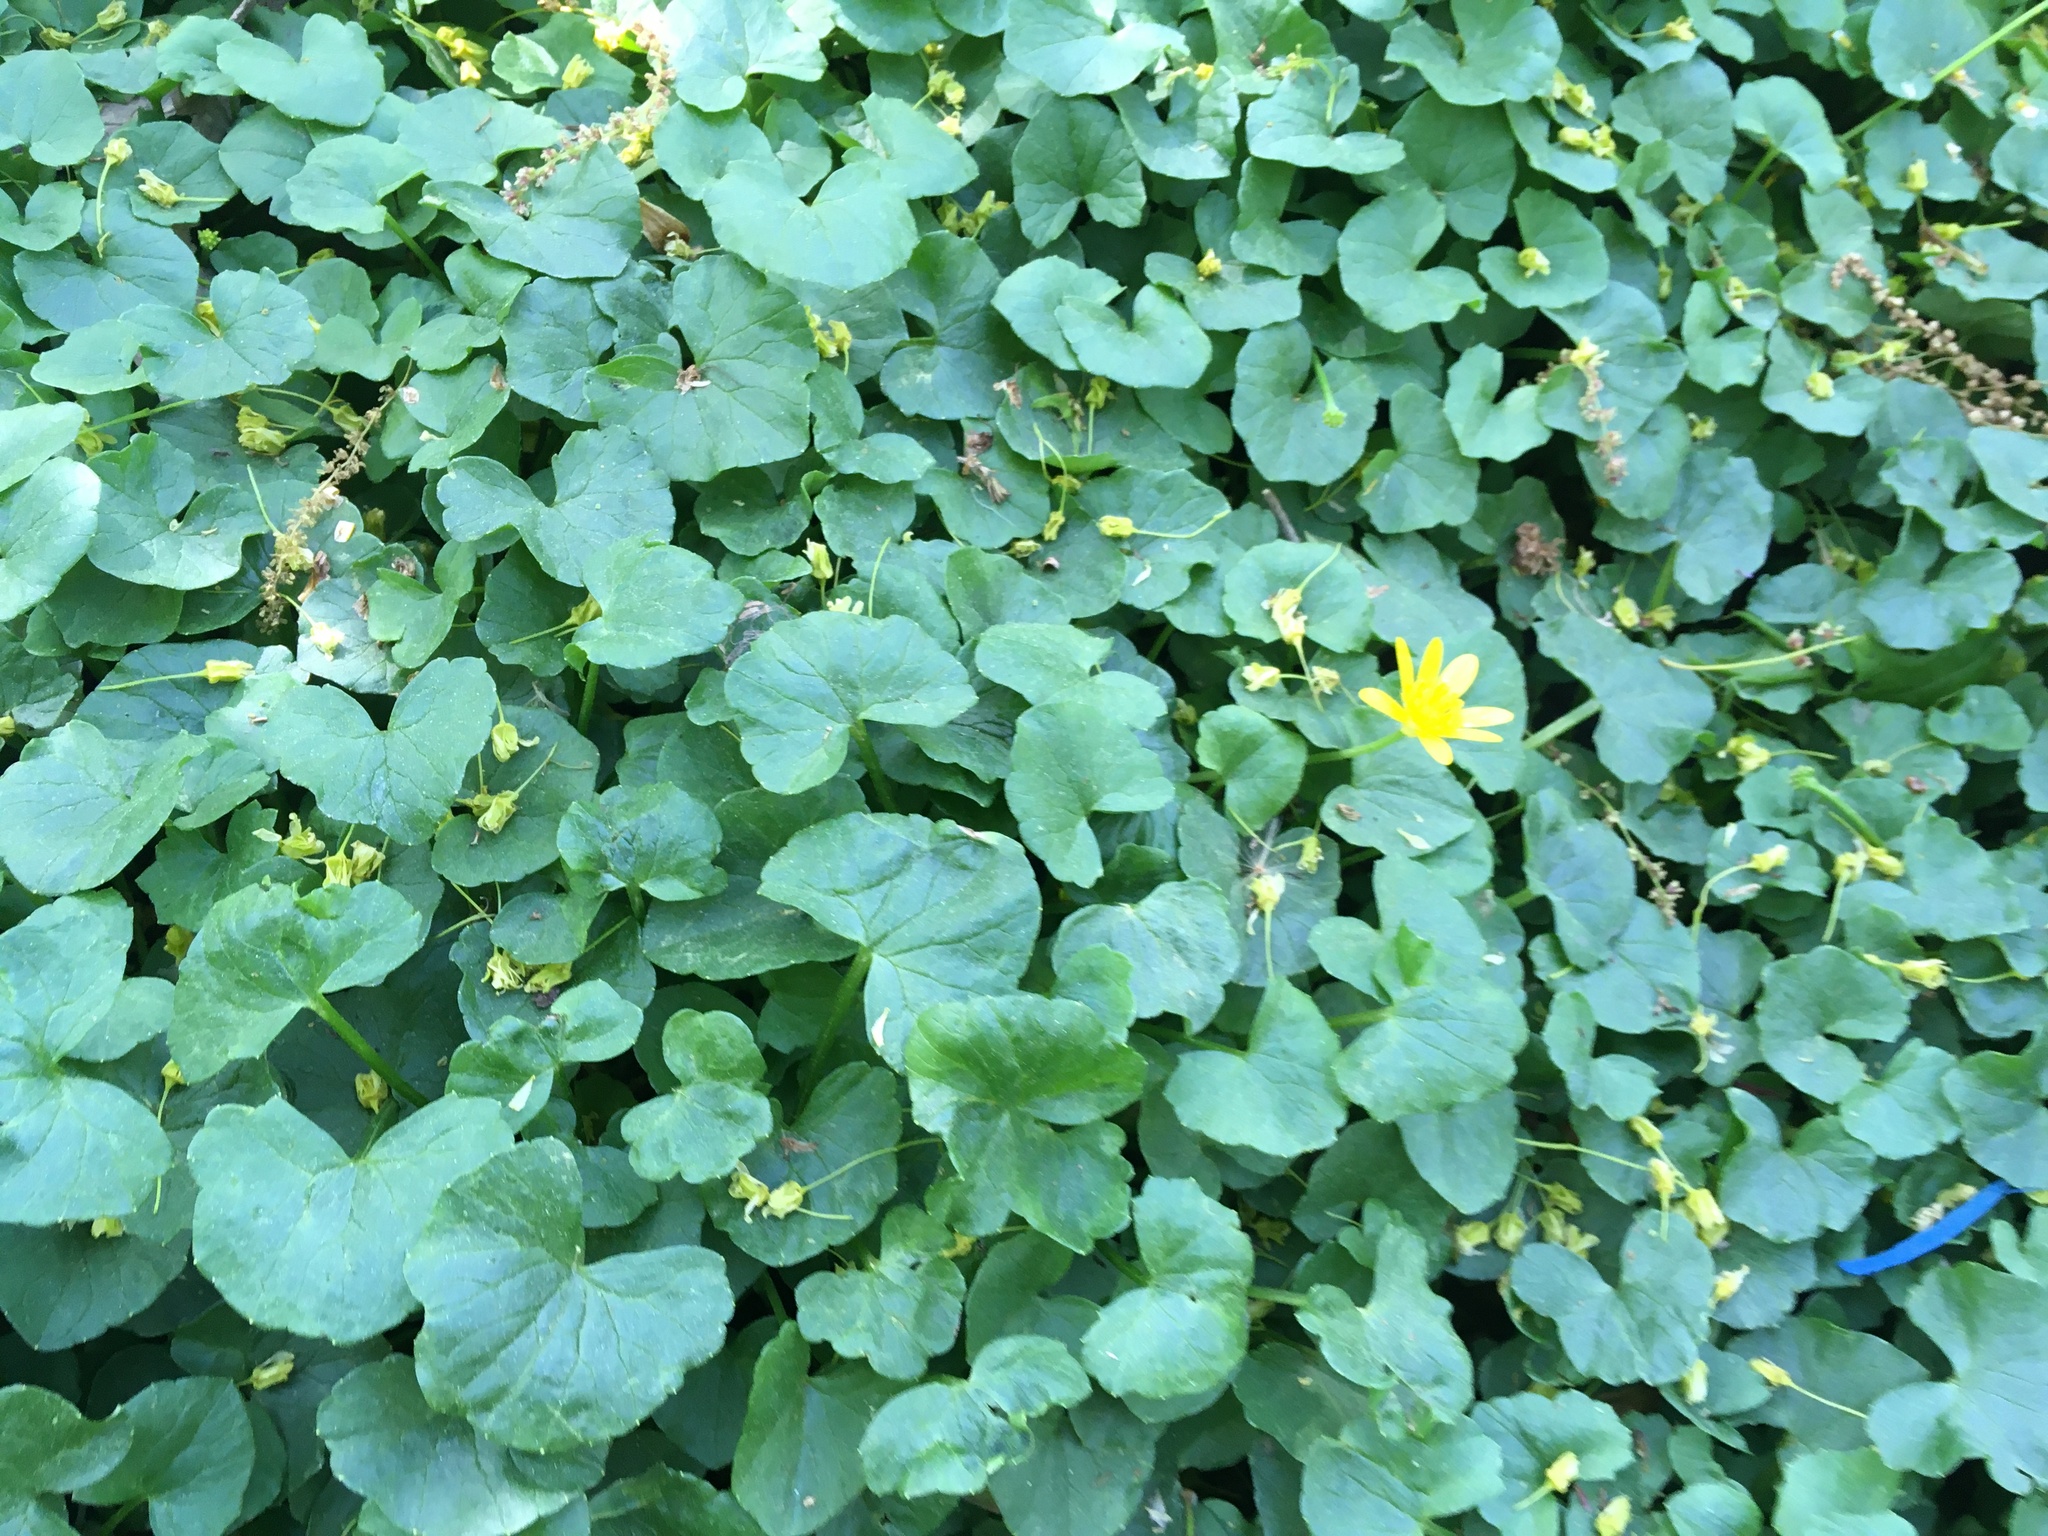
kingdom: Plantae
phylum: Tracheophyta
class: Magnoliopsida
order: Ranunculales
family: Ranunculaceae
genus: Ficaria
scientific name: Ficaria verna
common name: Lesser celandine
